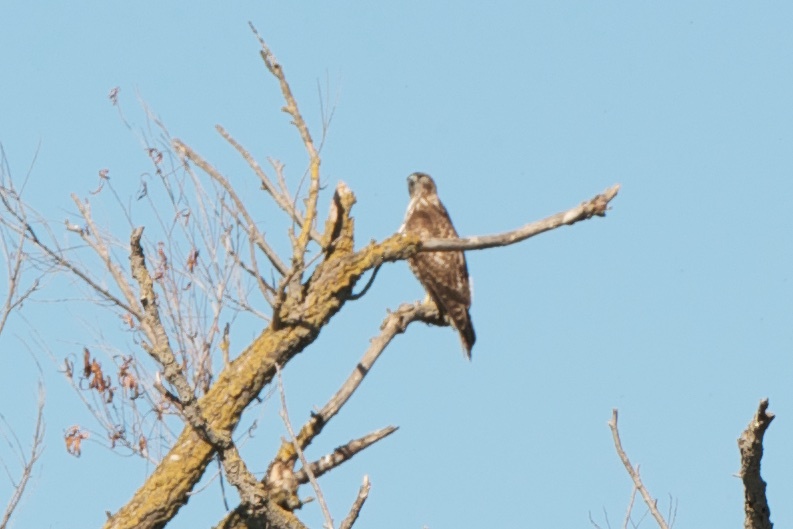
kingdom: Animalia
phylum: Chordata
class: Aves
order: Accipitriformes
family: Accipitridae
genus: Buteo
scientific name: Buteo jamaicensis
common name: Red-tailed hawk
